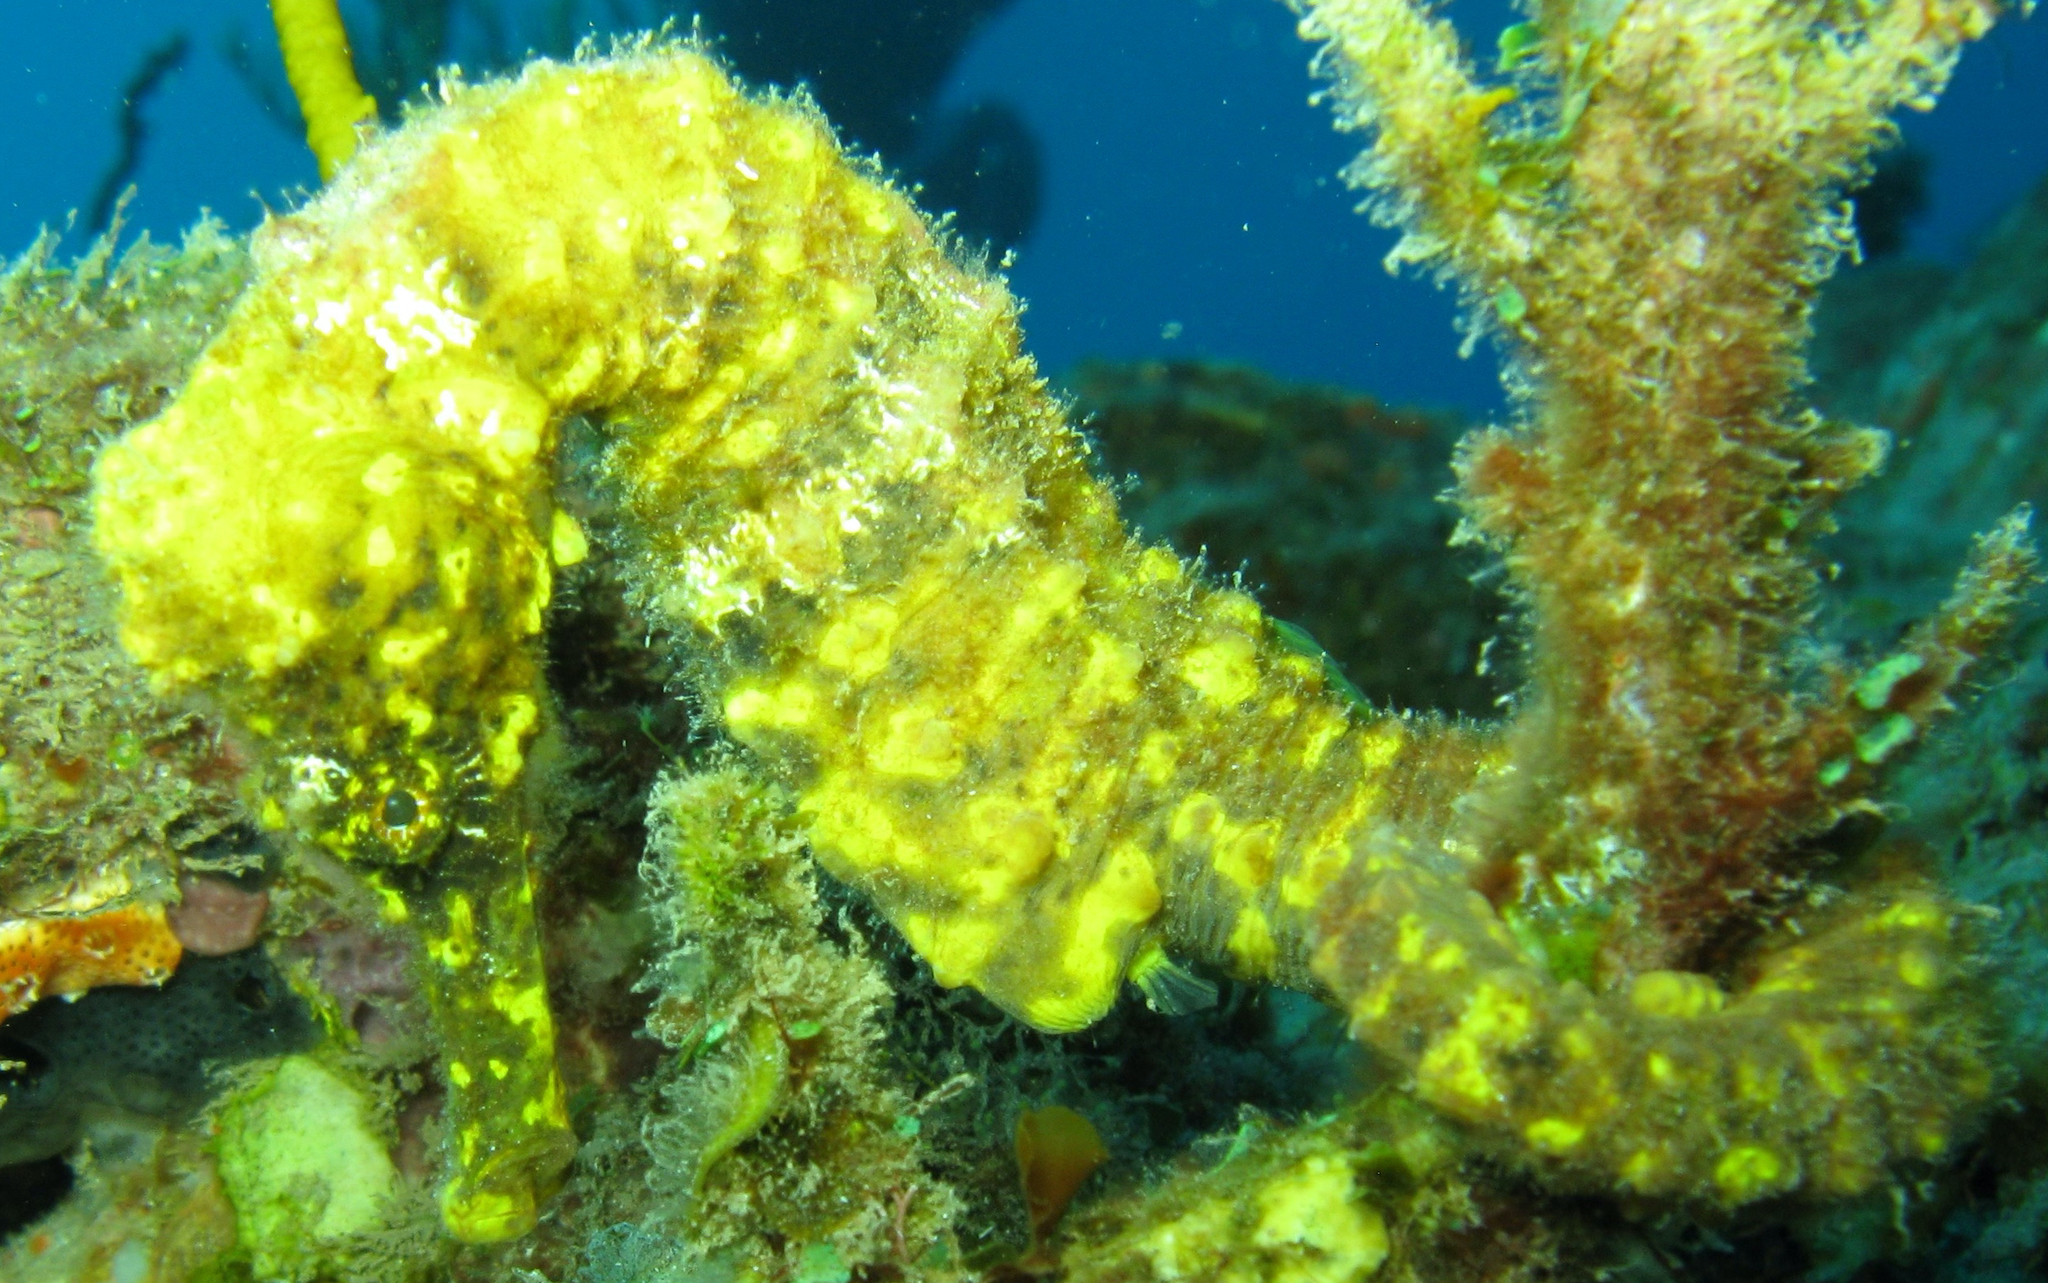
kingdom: Animalia
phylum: Chordata
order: Syngnathiformes
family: Syngnathidae
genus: Hippocampus
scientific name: Hippocampus reidi
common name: Slender seahorse
